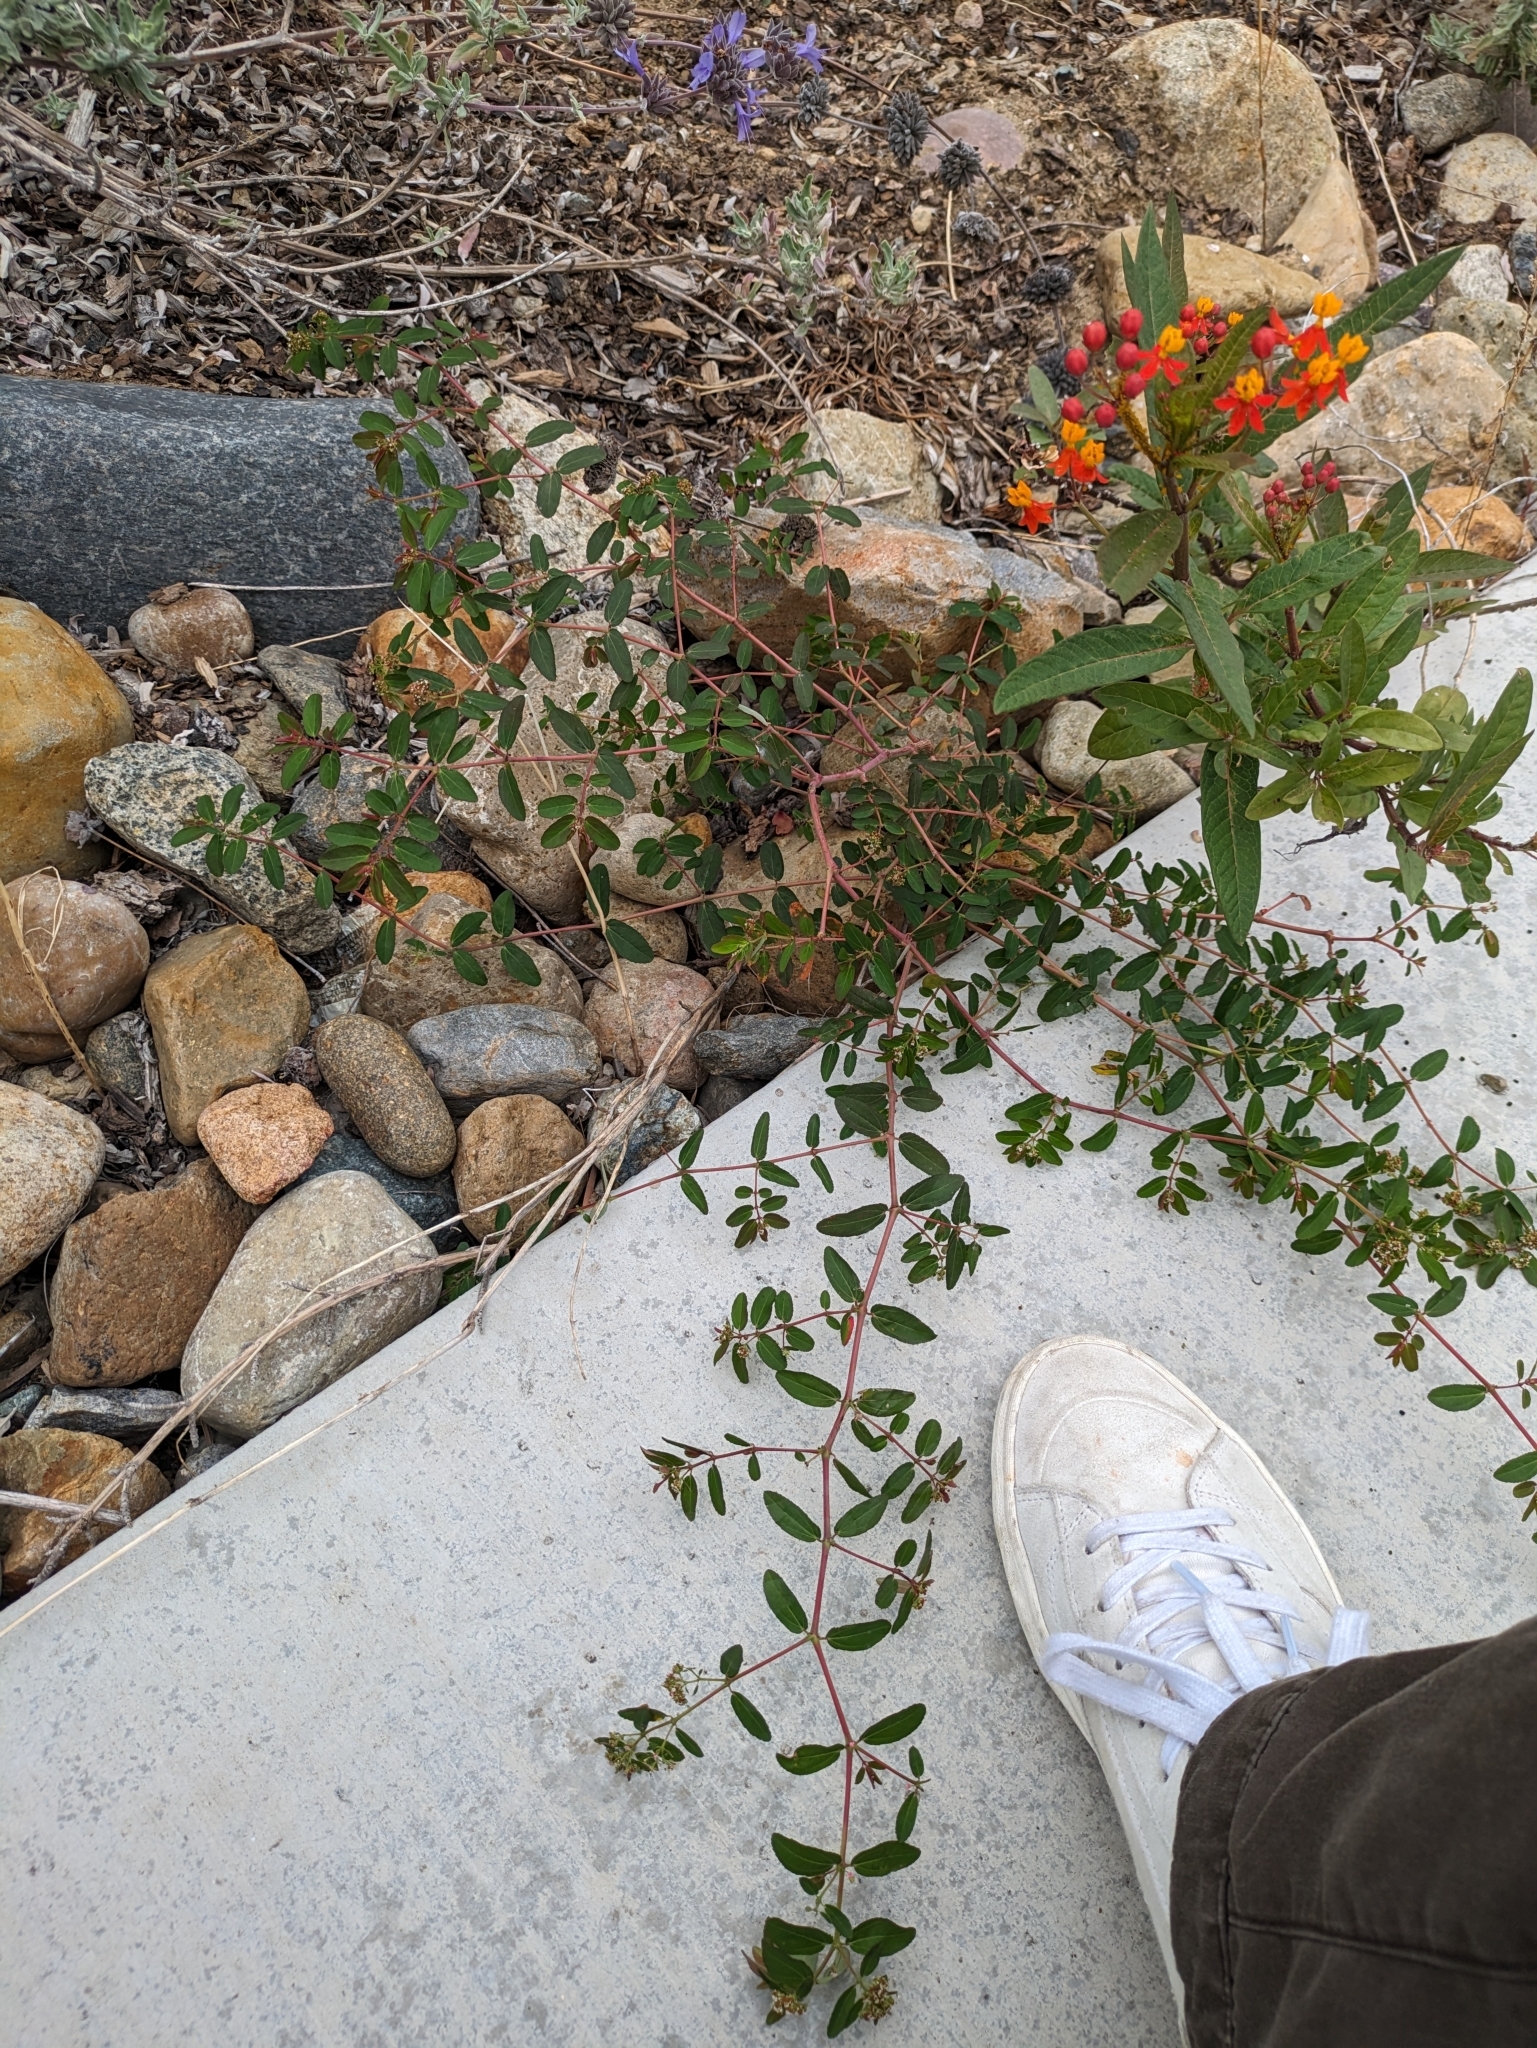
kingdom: Plantae
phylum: Tracheophyta
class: Magnoliopsida
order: Malpighiales
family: Euphorbiaceae
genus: Euphorbia
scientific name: Euphorbia hypericifolia
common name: Graceful sandmat
